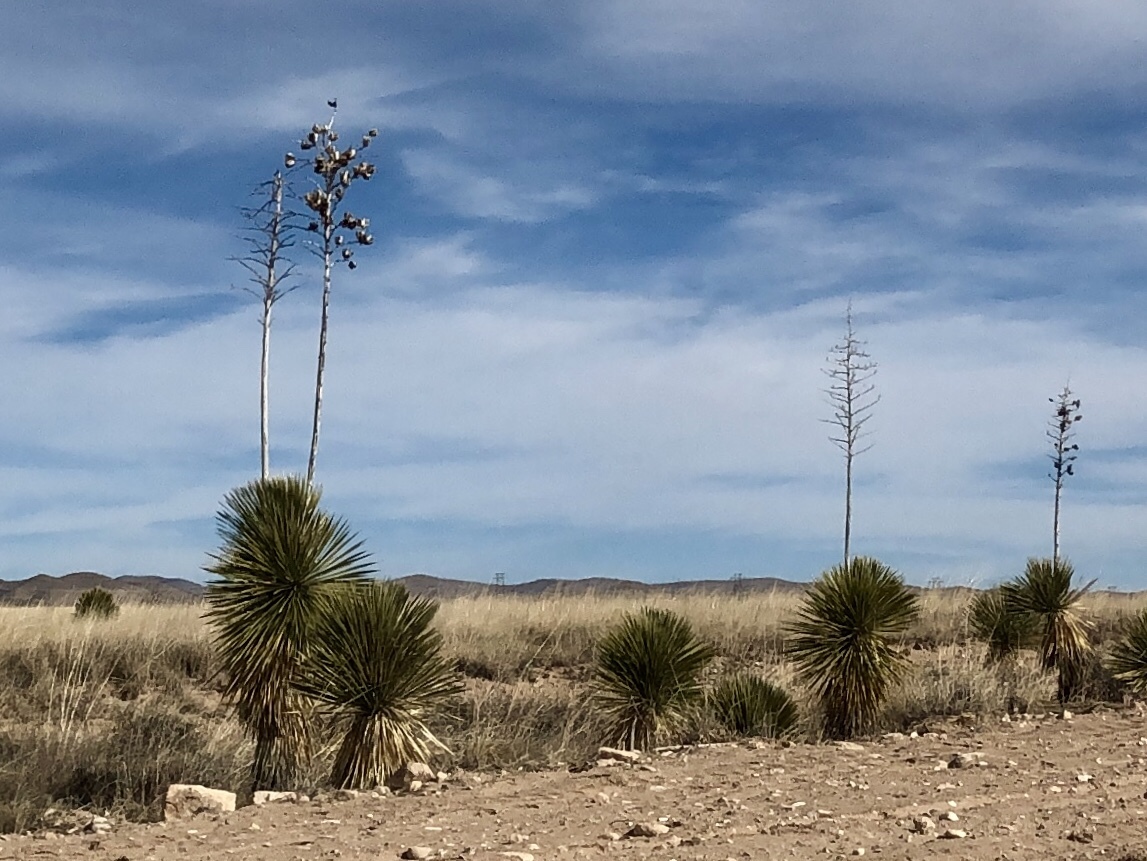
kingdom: Plantae
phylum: Tracheophyta
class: Liliopsida
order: Asparagales
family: Asparagaceae
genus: Yucca
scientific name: Yucca elata
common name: Palmella
